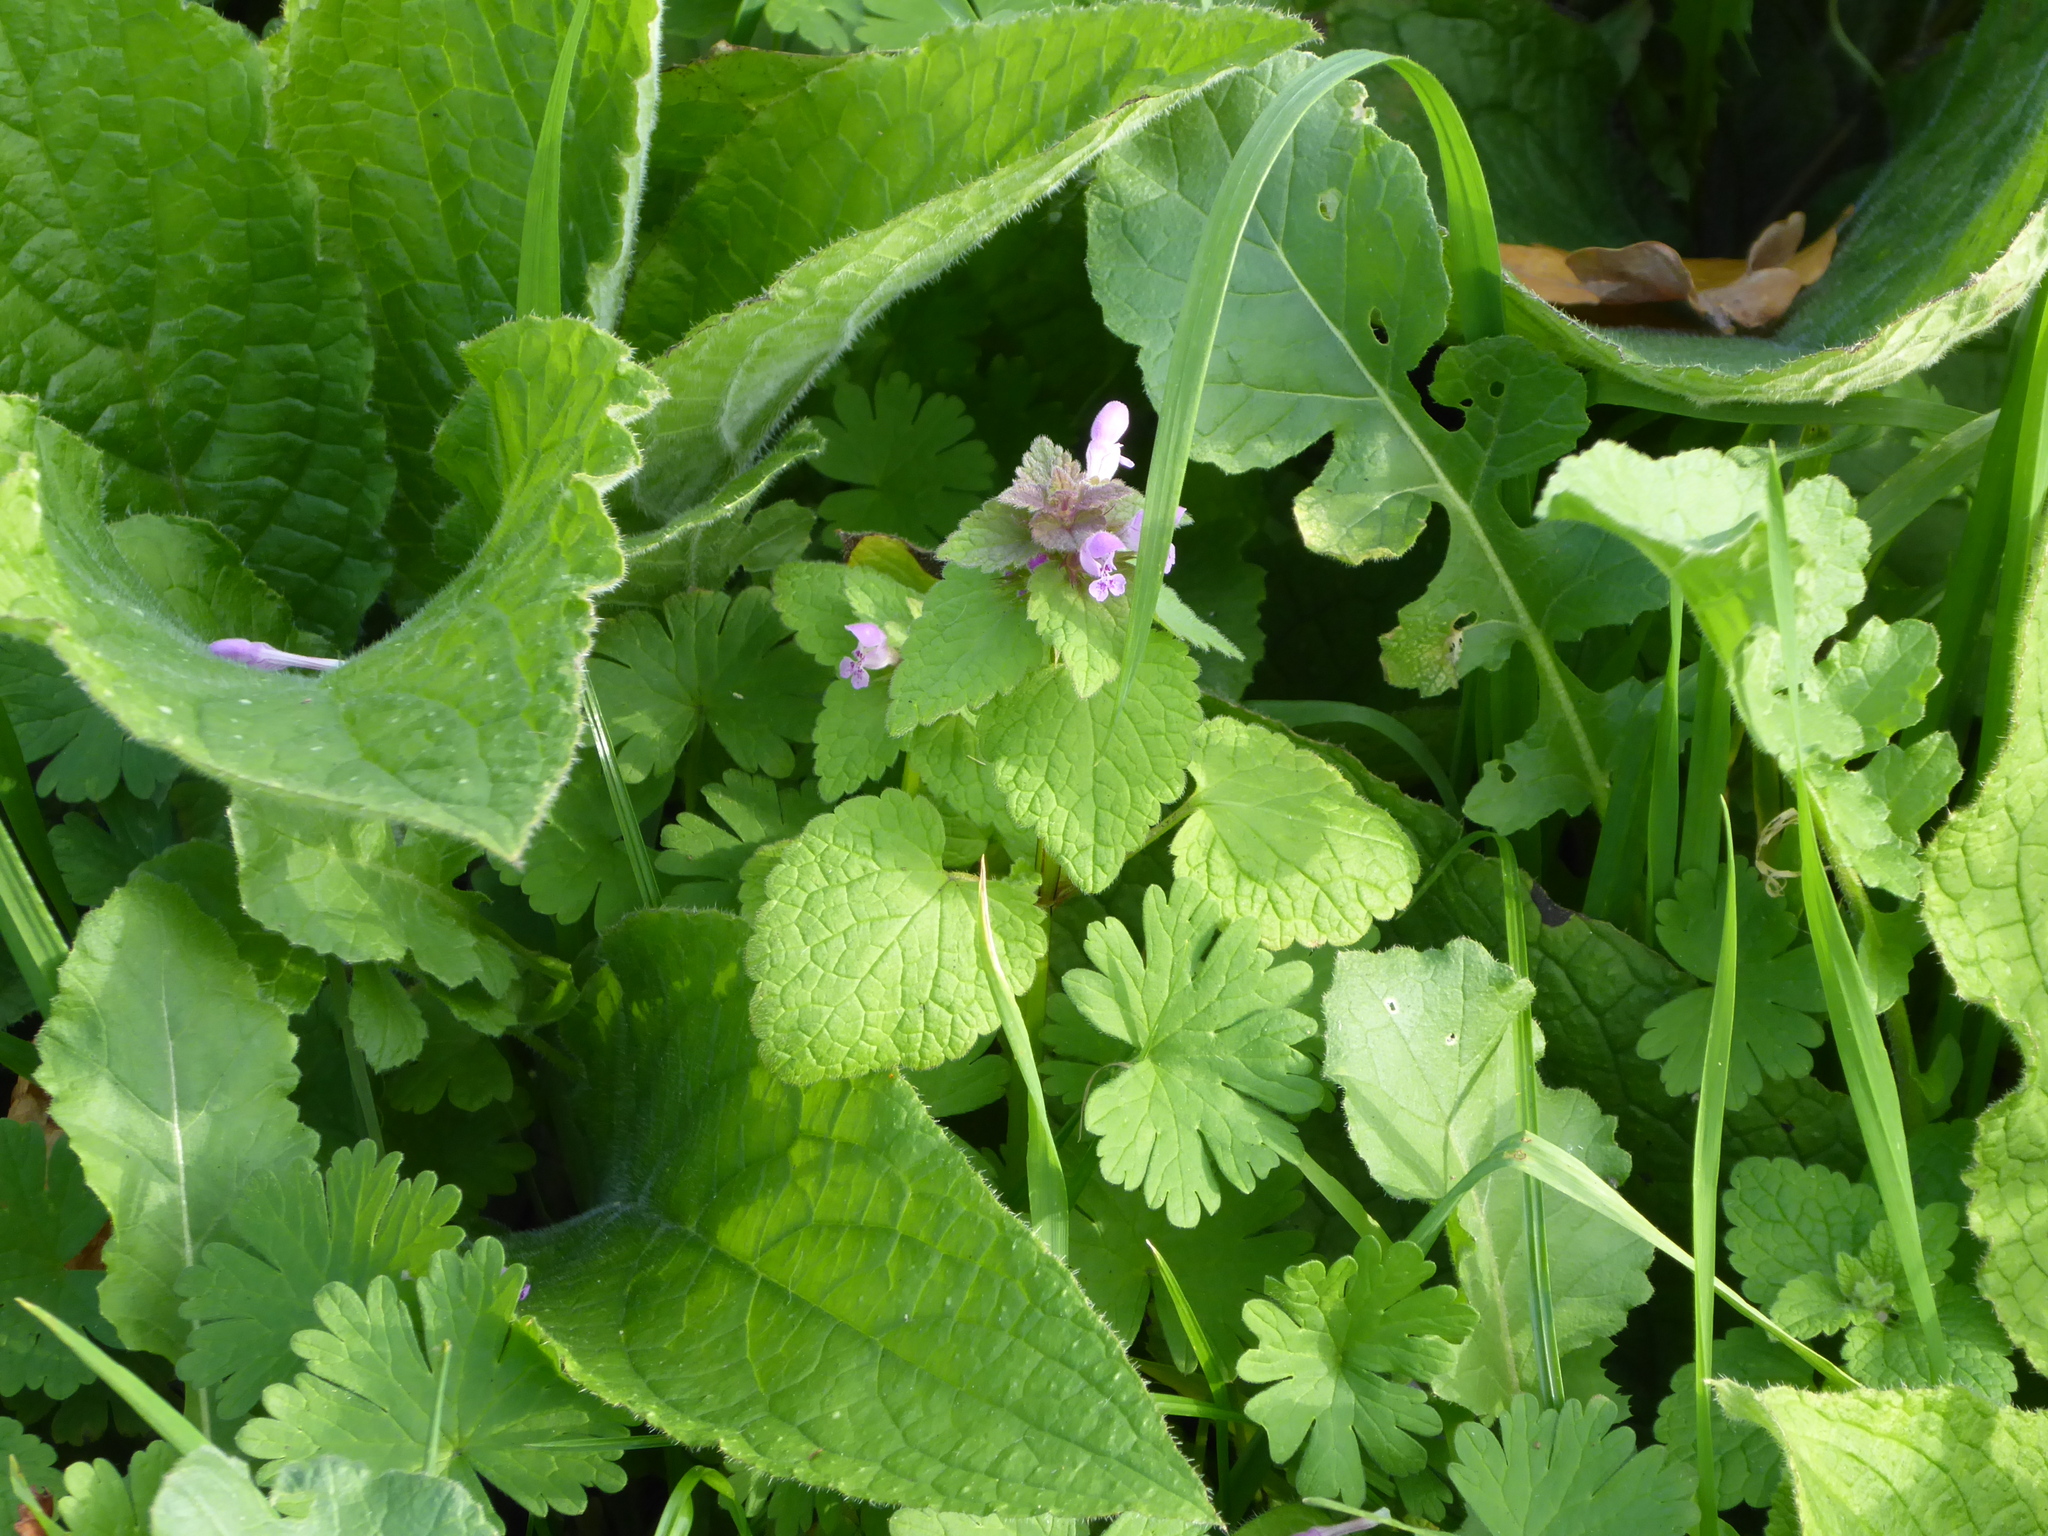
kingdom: Plantae
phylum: Tracheophyta
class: Magnoliopsida
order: Lamiales
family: Lamiaceae
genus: Lamium
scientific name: Lamium purpureum
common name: Red dead-nettle
